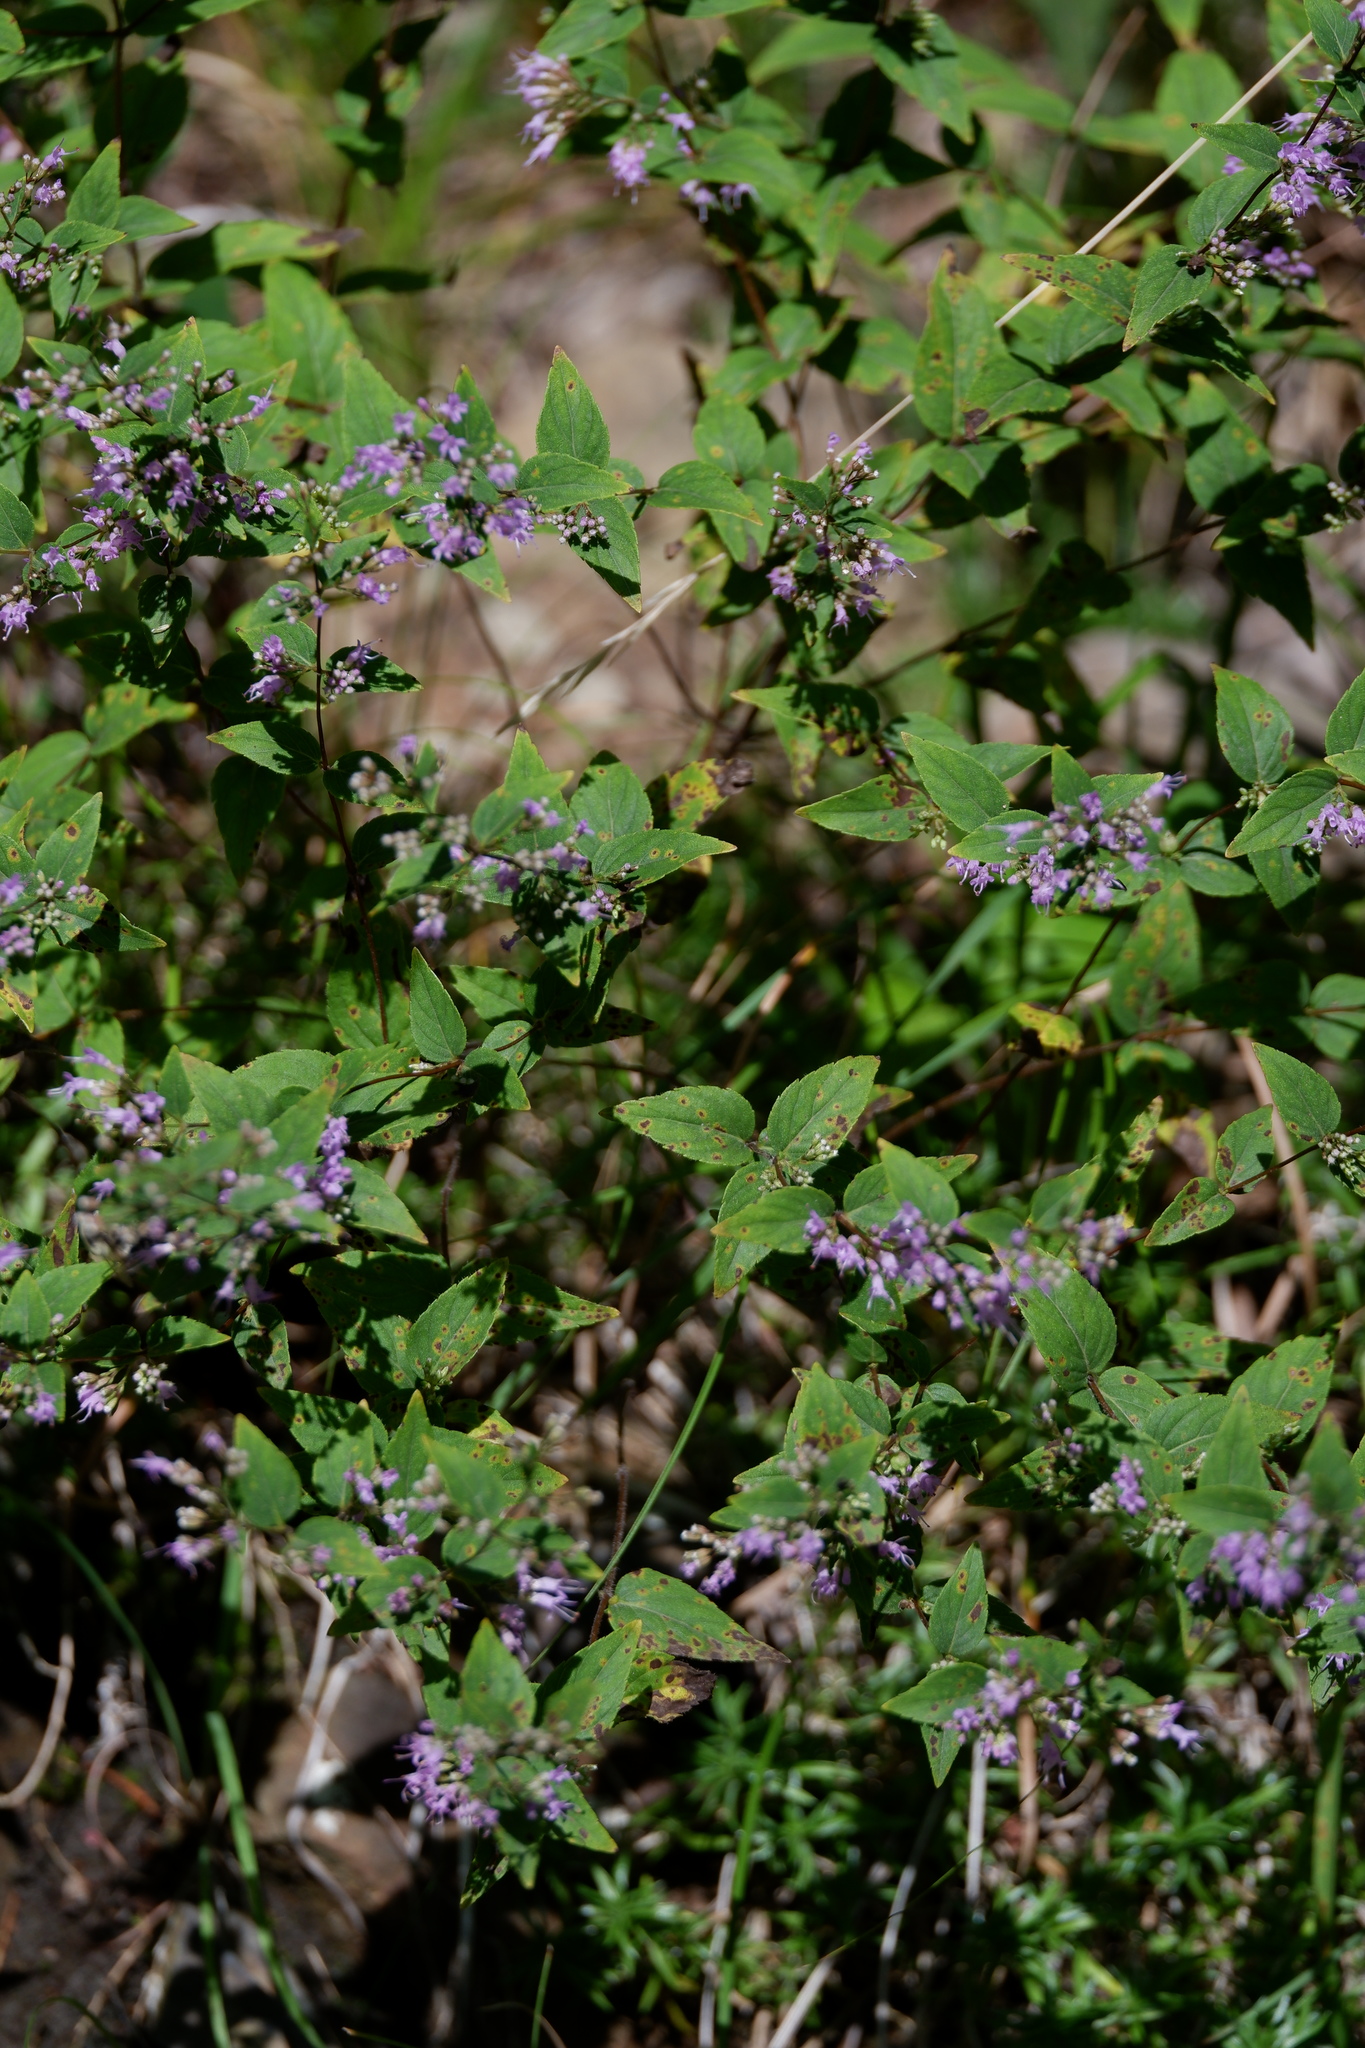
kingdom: Plantae
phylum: Tracheophyta
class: Magnoliopsida
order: Lamiales
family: Lamiaceae
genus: Cunila
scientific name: Cunila origanoides
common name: American dittany
